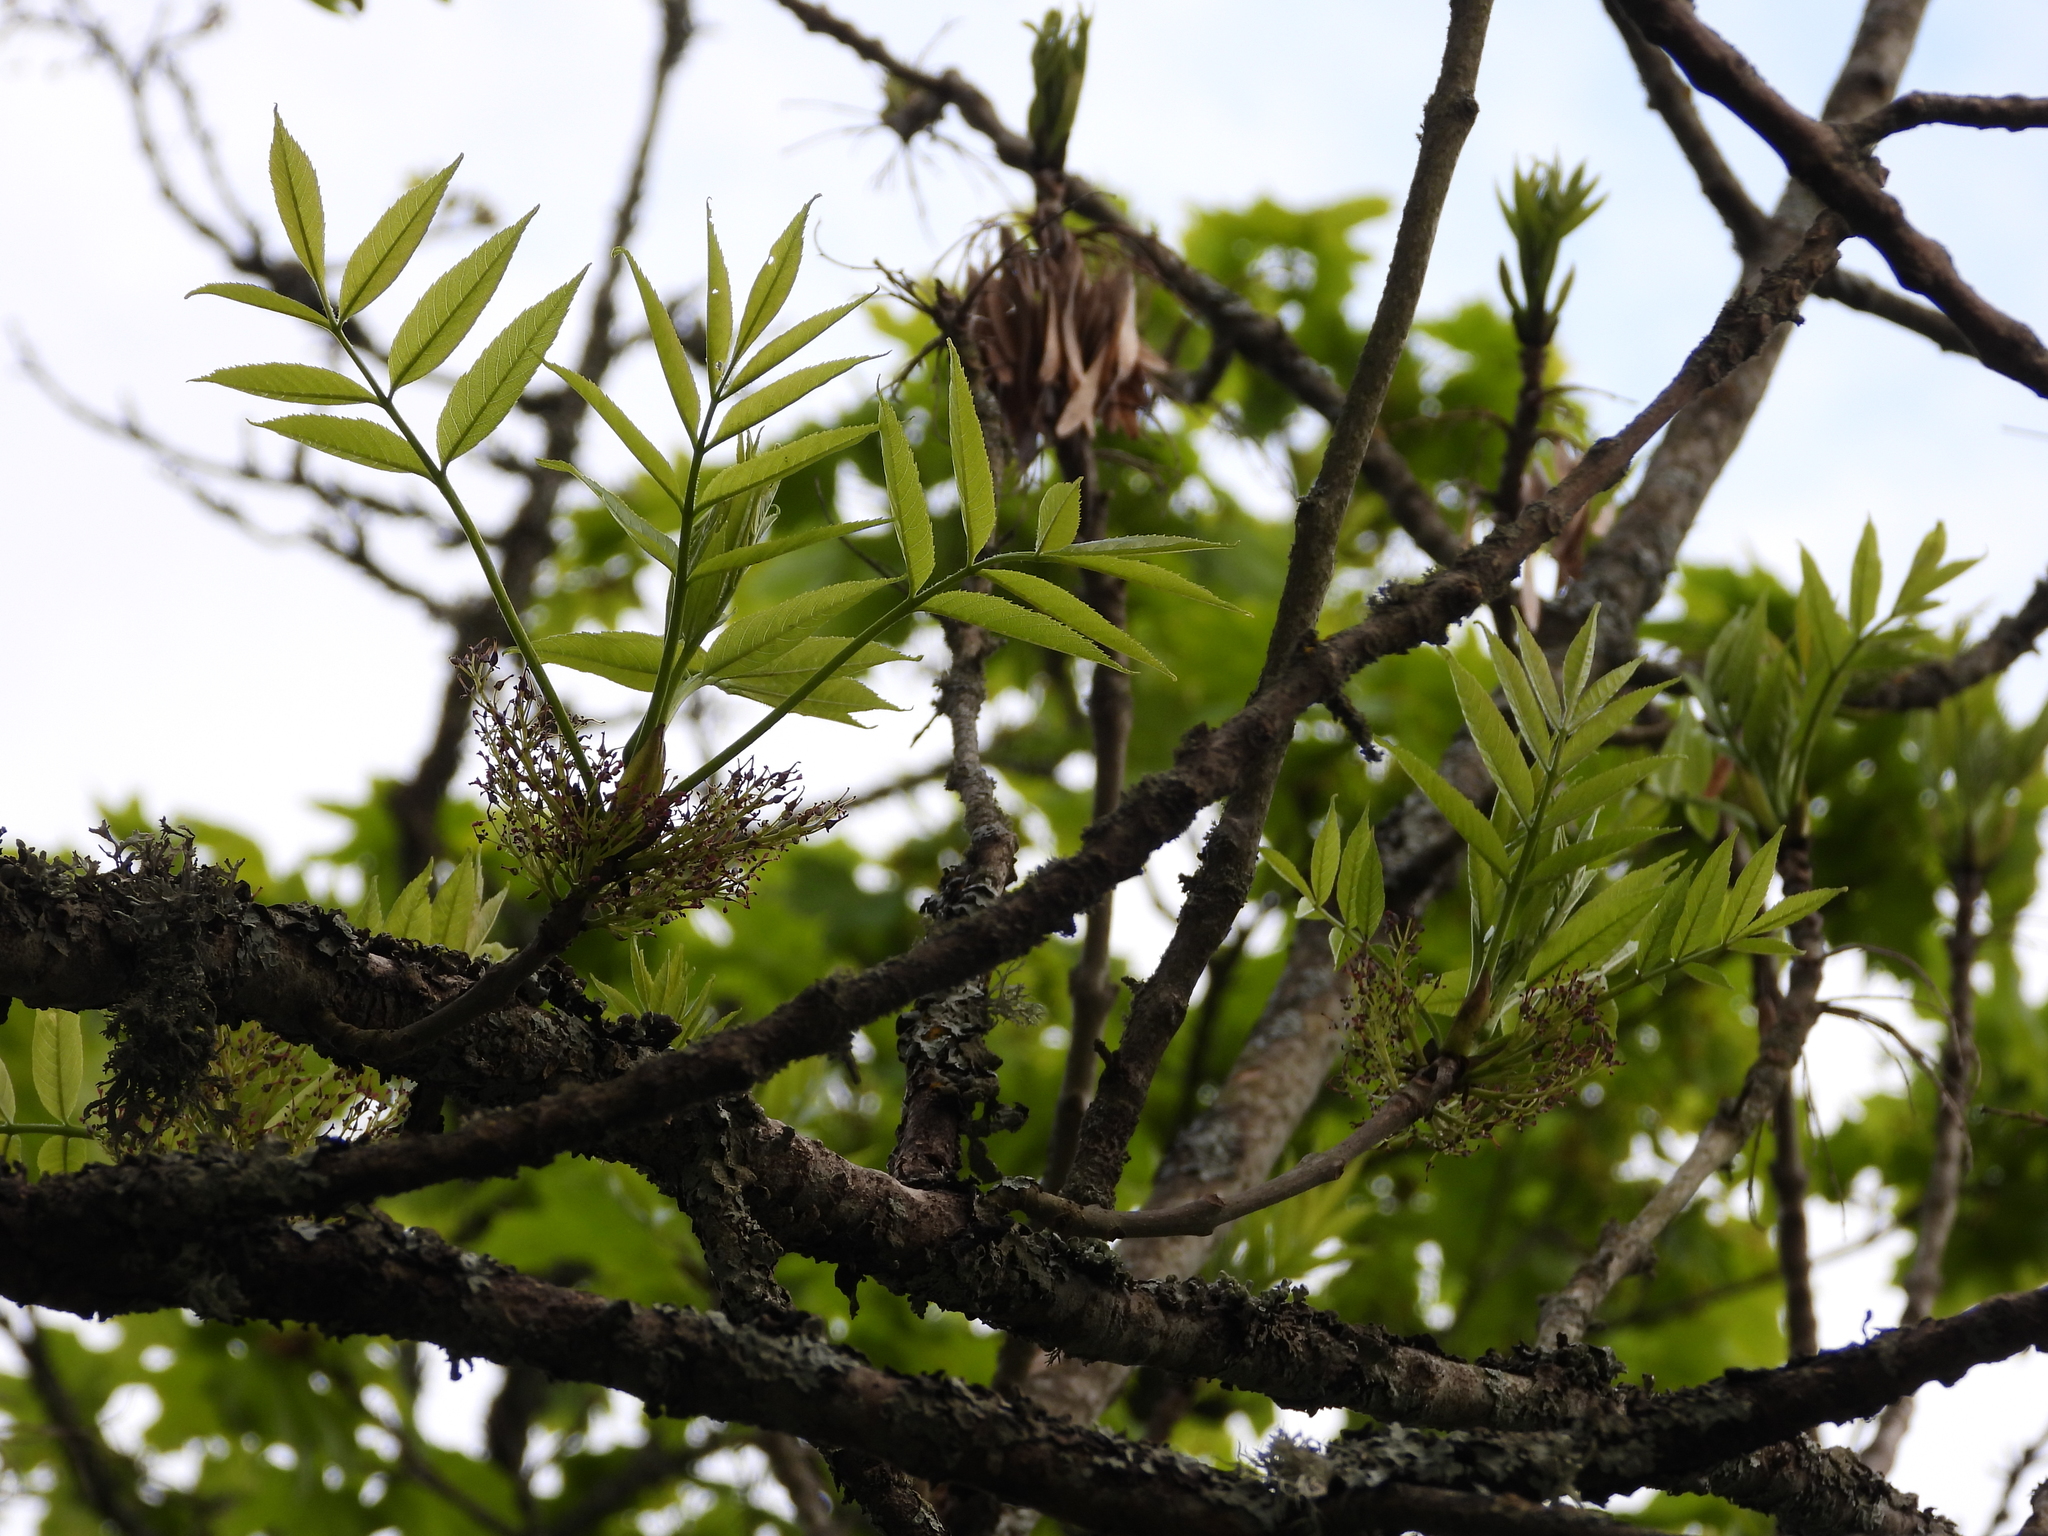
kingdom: Plantae
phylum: Tracheophyta
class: Magnoliopsida
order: Lamiales
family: Oleaceae
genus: Fraxinus
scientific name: Fraxinus excelsior
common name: European ash
